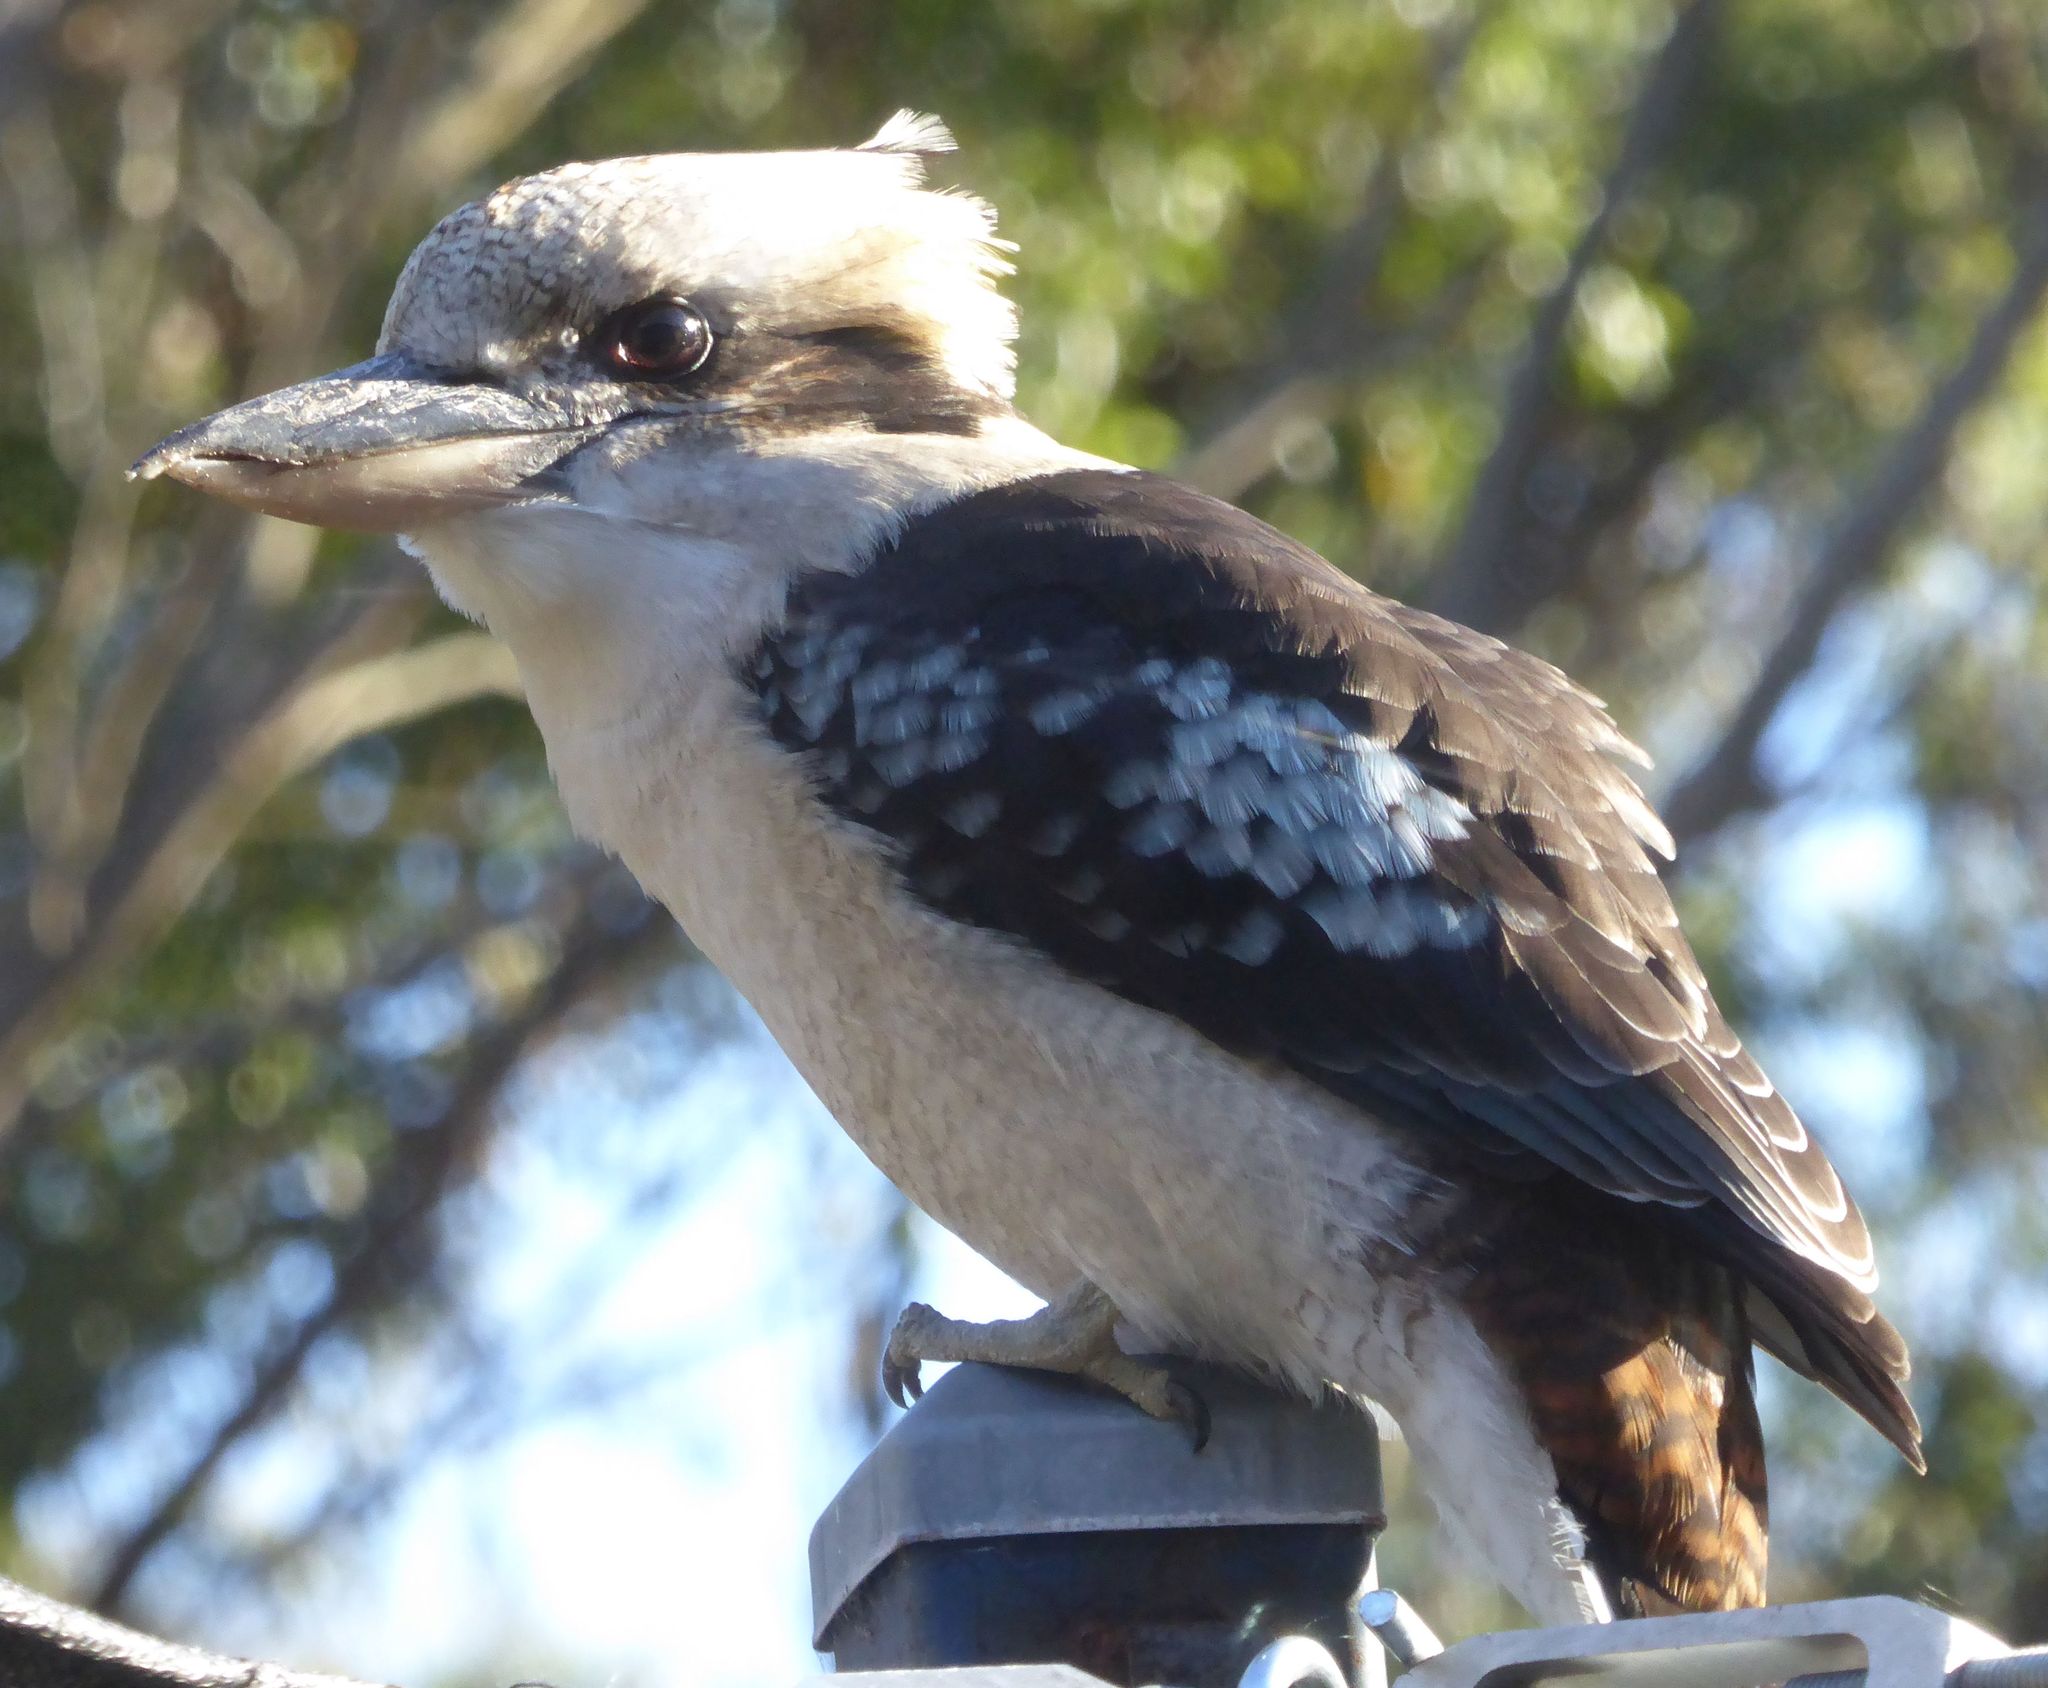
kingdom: Animalia
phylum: Chordata
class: Aves
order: Coraciiformes
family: Alcedinidae
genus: Dacelo
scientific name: Dacelo novaeguineae
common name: Laughing kookaburra
